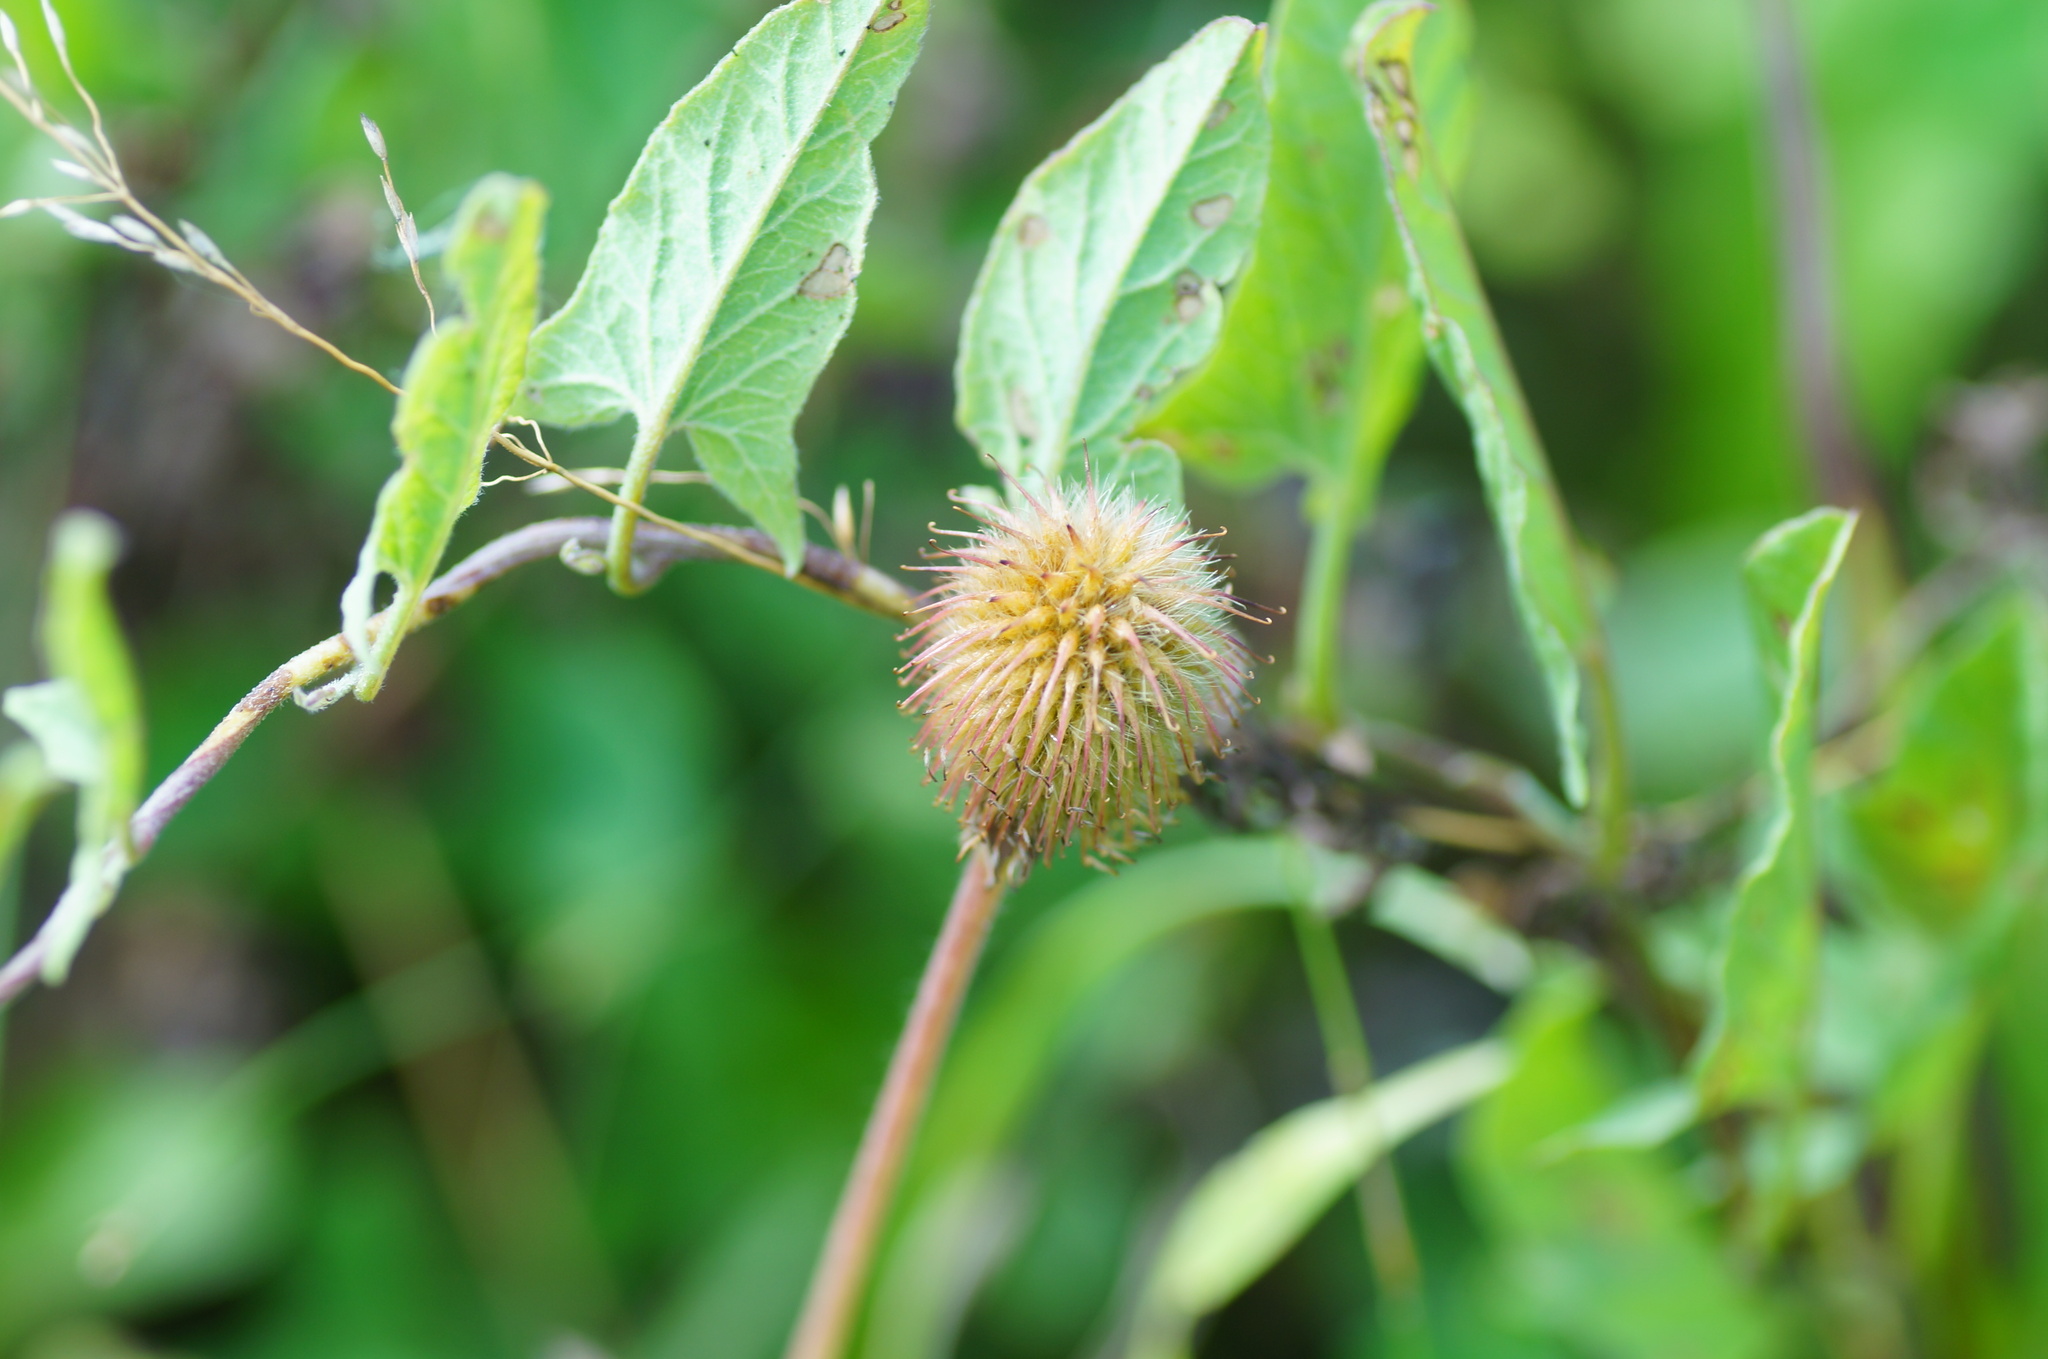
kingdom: Plantae
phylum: Tracheophyta
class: Magnoliopsida
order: Rosales
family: Rosaceae
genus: Geum
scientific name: Geum aleppicum
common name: Yellow avens
